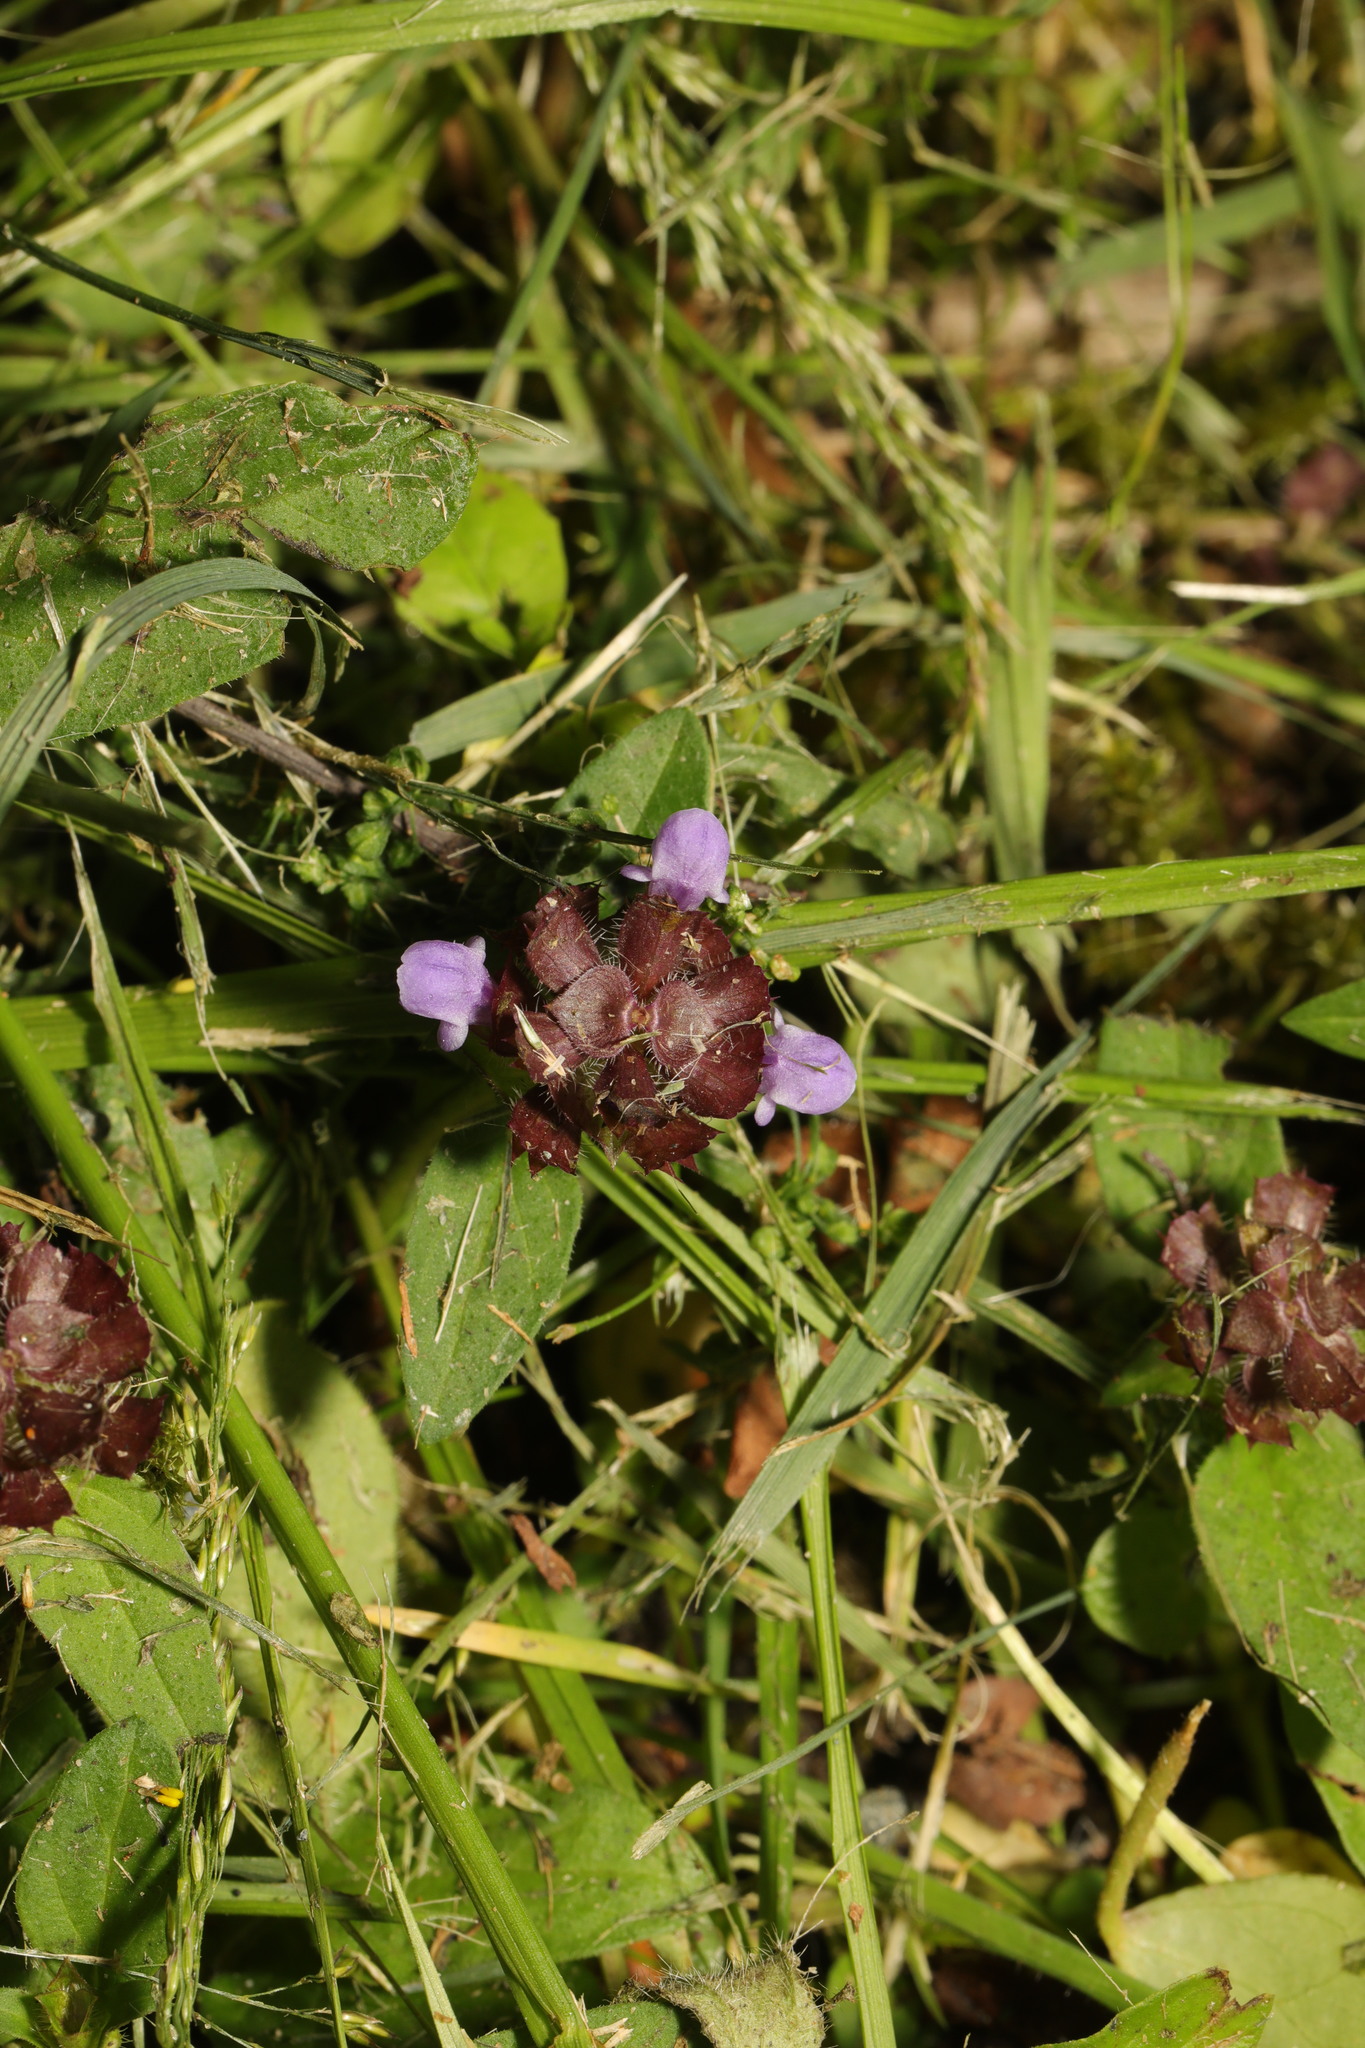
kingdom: Plantae
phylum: Tracheophyta
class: Magnoliopsida
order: Lamiales
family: Lamiaceae
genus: Prunella
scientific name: Prunella vulgaris
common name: Heal-all
